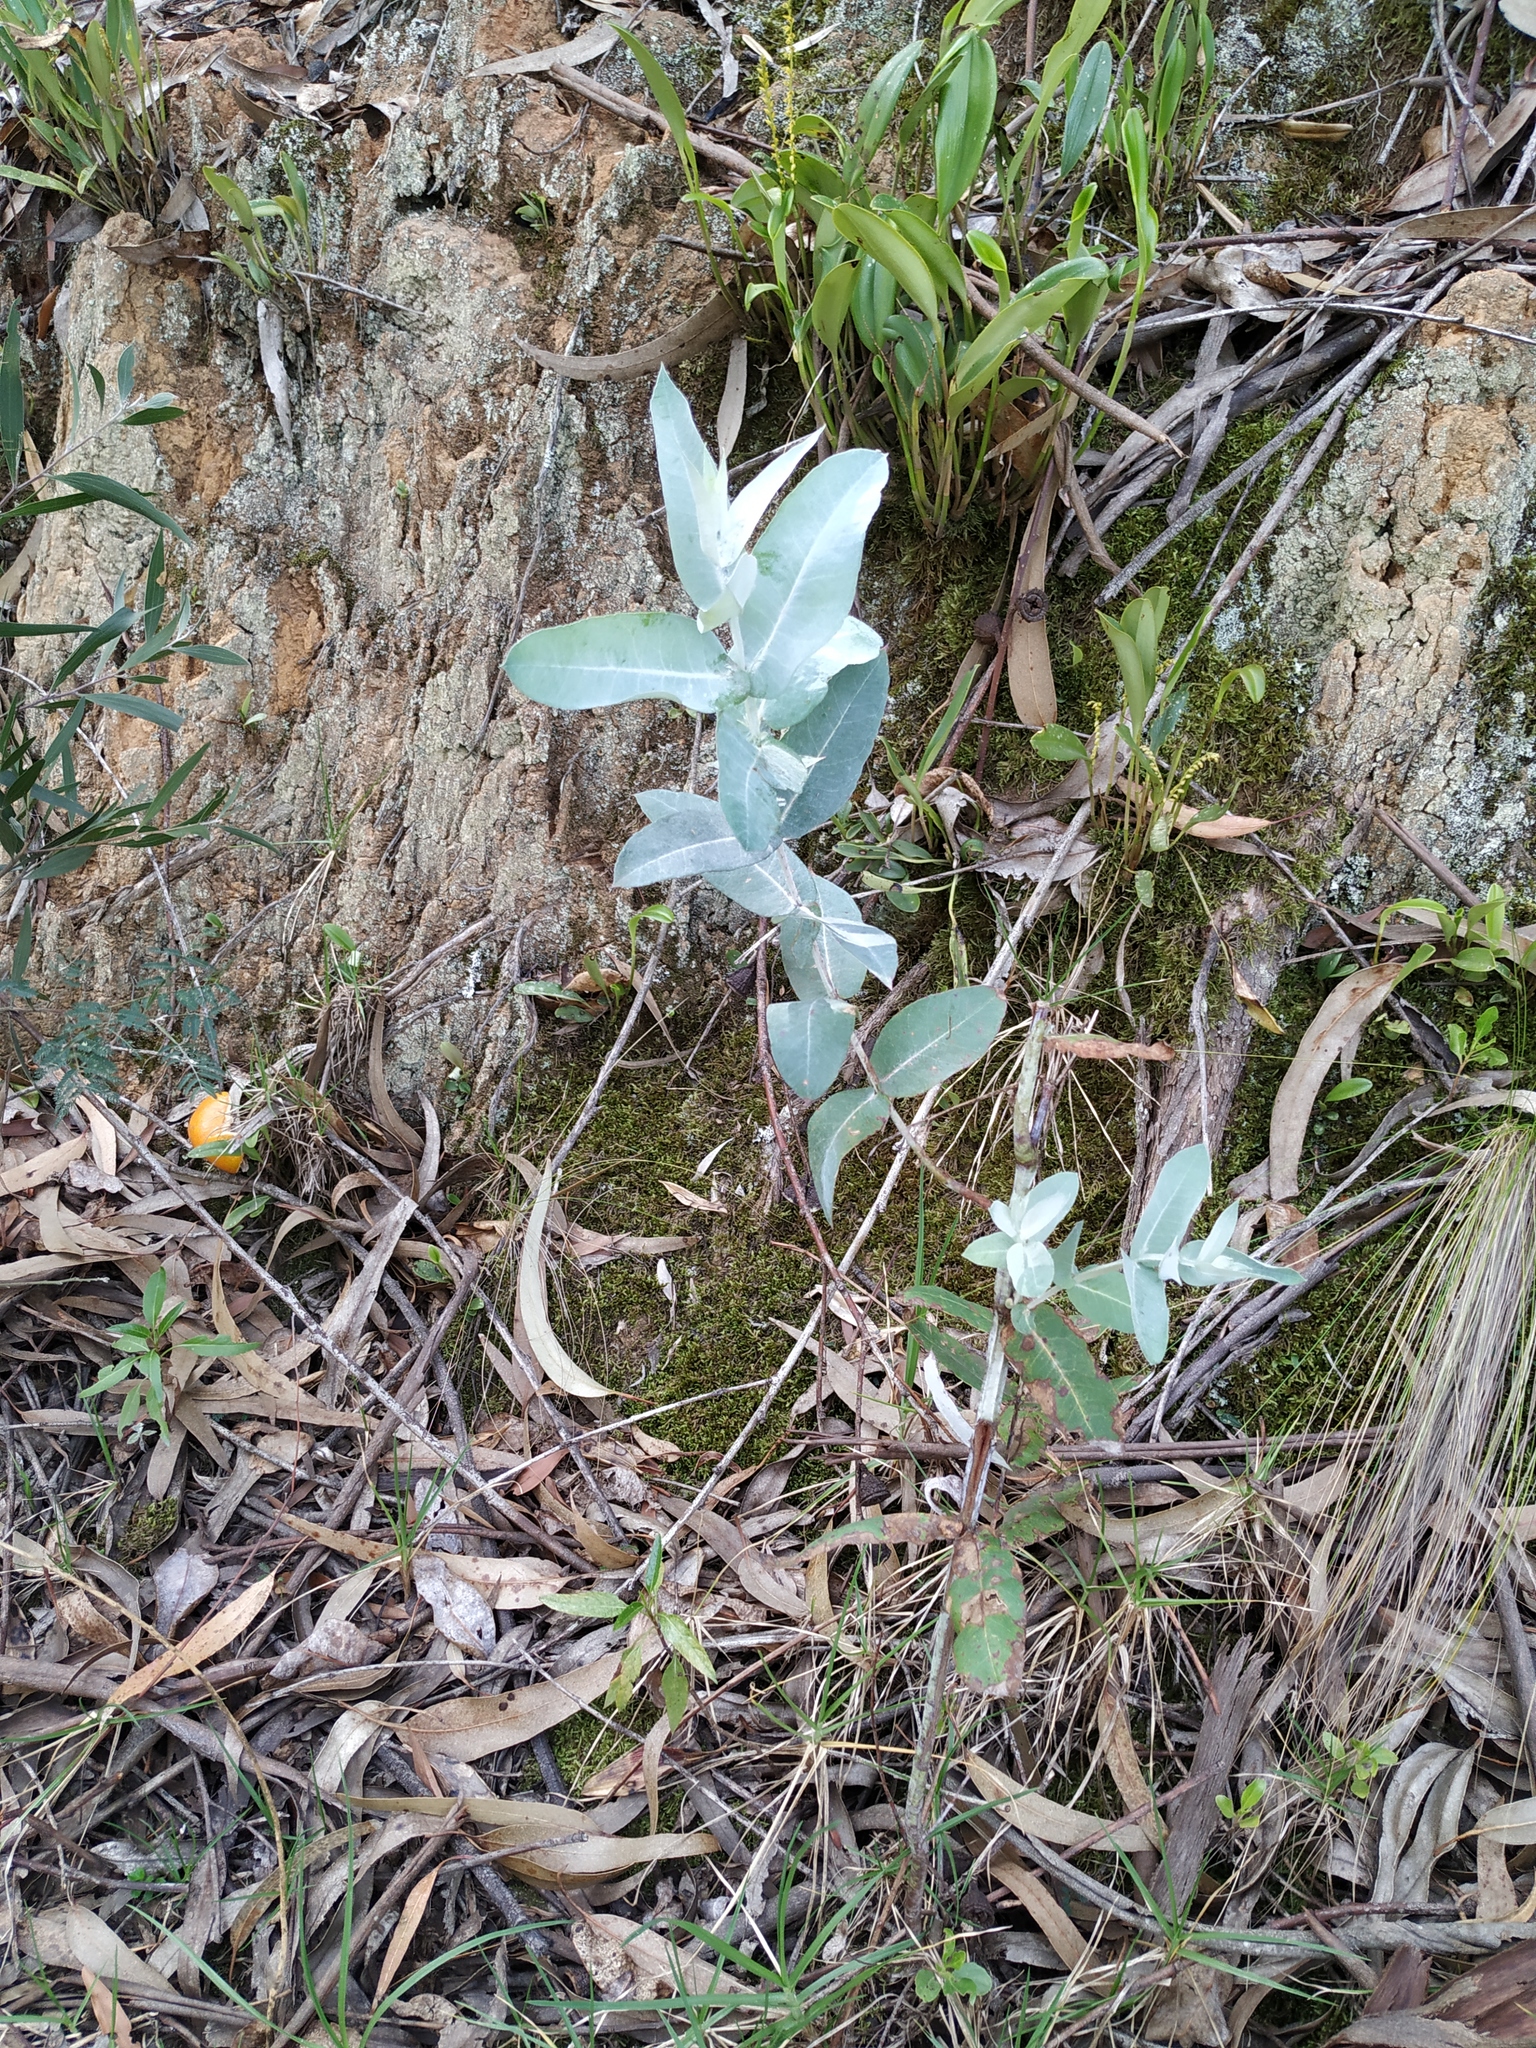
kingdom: Plantae
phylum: Tracheophyta
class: Magnoliopsida
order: Myrtales
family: Myrtaceae
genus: Eucalyptus
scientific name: Eucalyptus globulus
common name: Southern blue-gum
